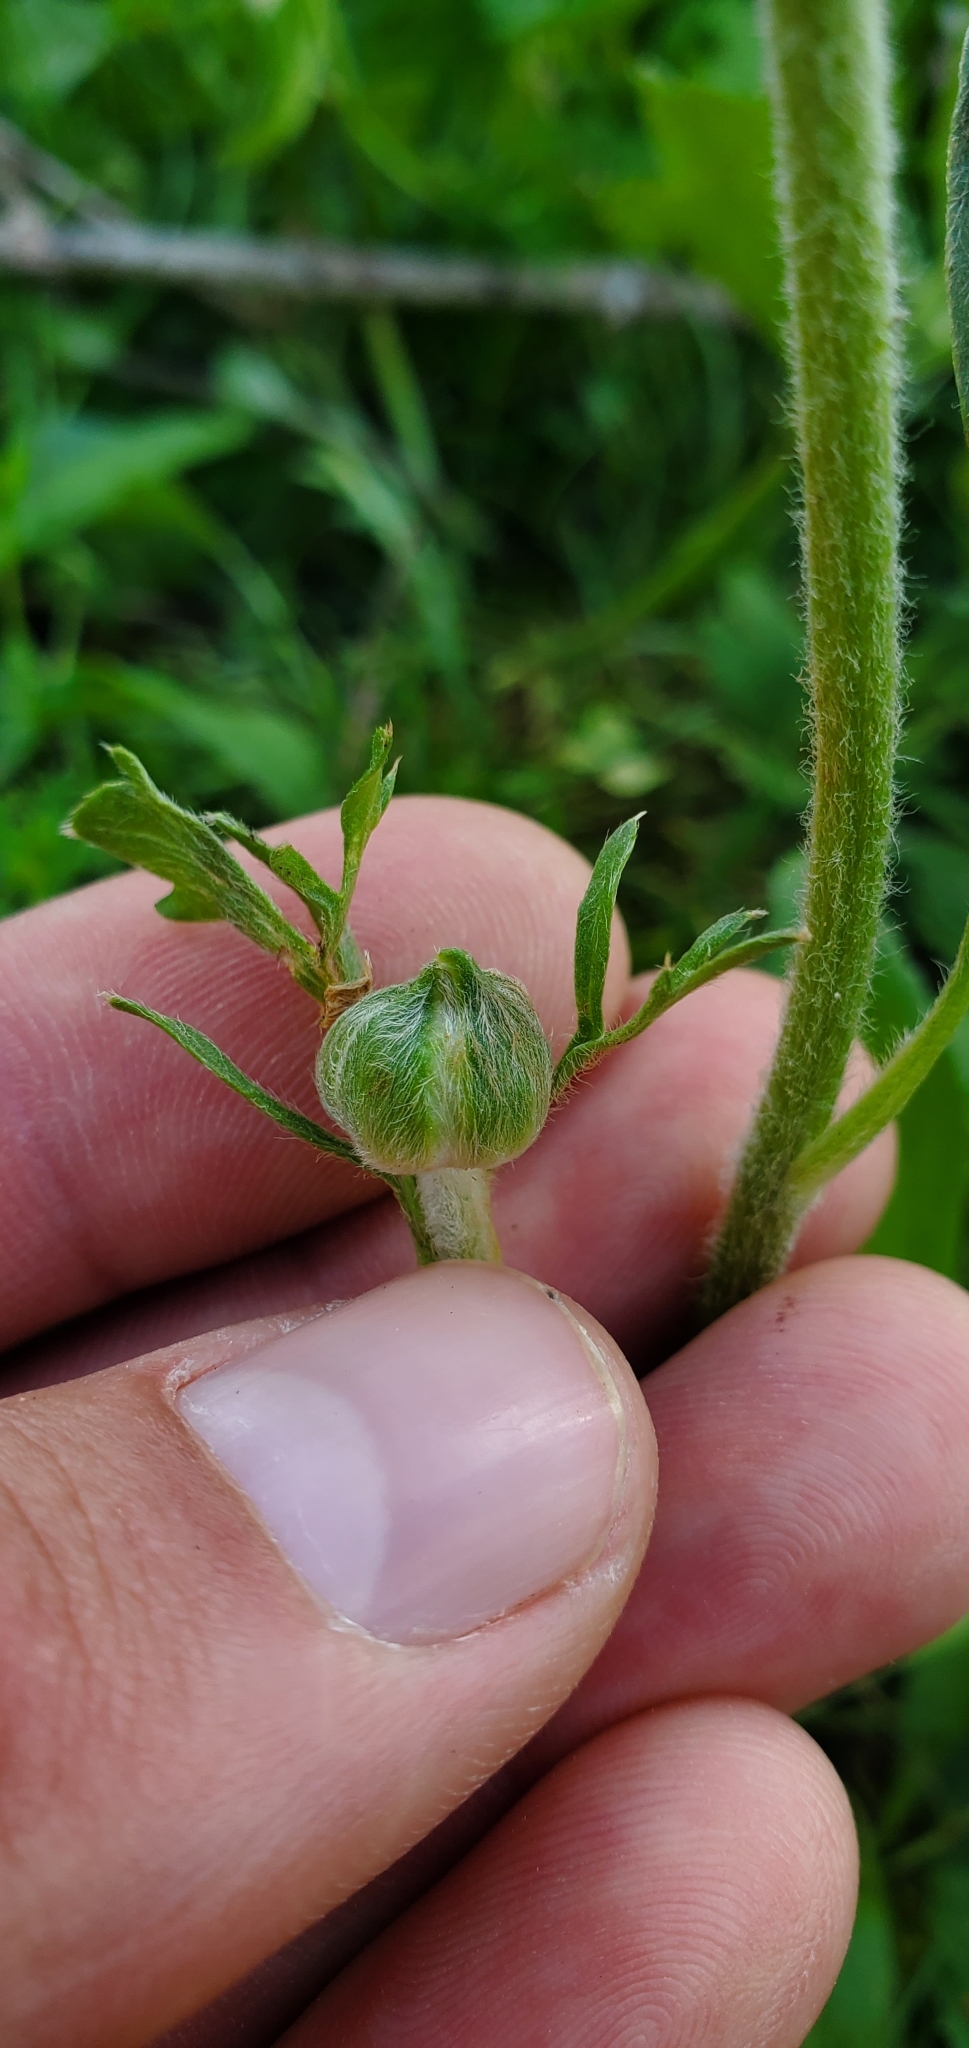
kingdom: Plantae
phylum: Tracheophyta
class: Magnoliopsida
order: Ranunculales
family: Ranunculaceae
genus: Ranunculus
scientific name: Ranunculus asiaticus
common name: Persian buttercup
